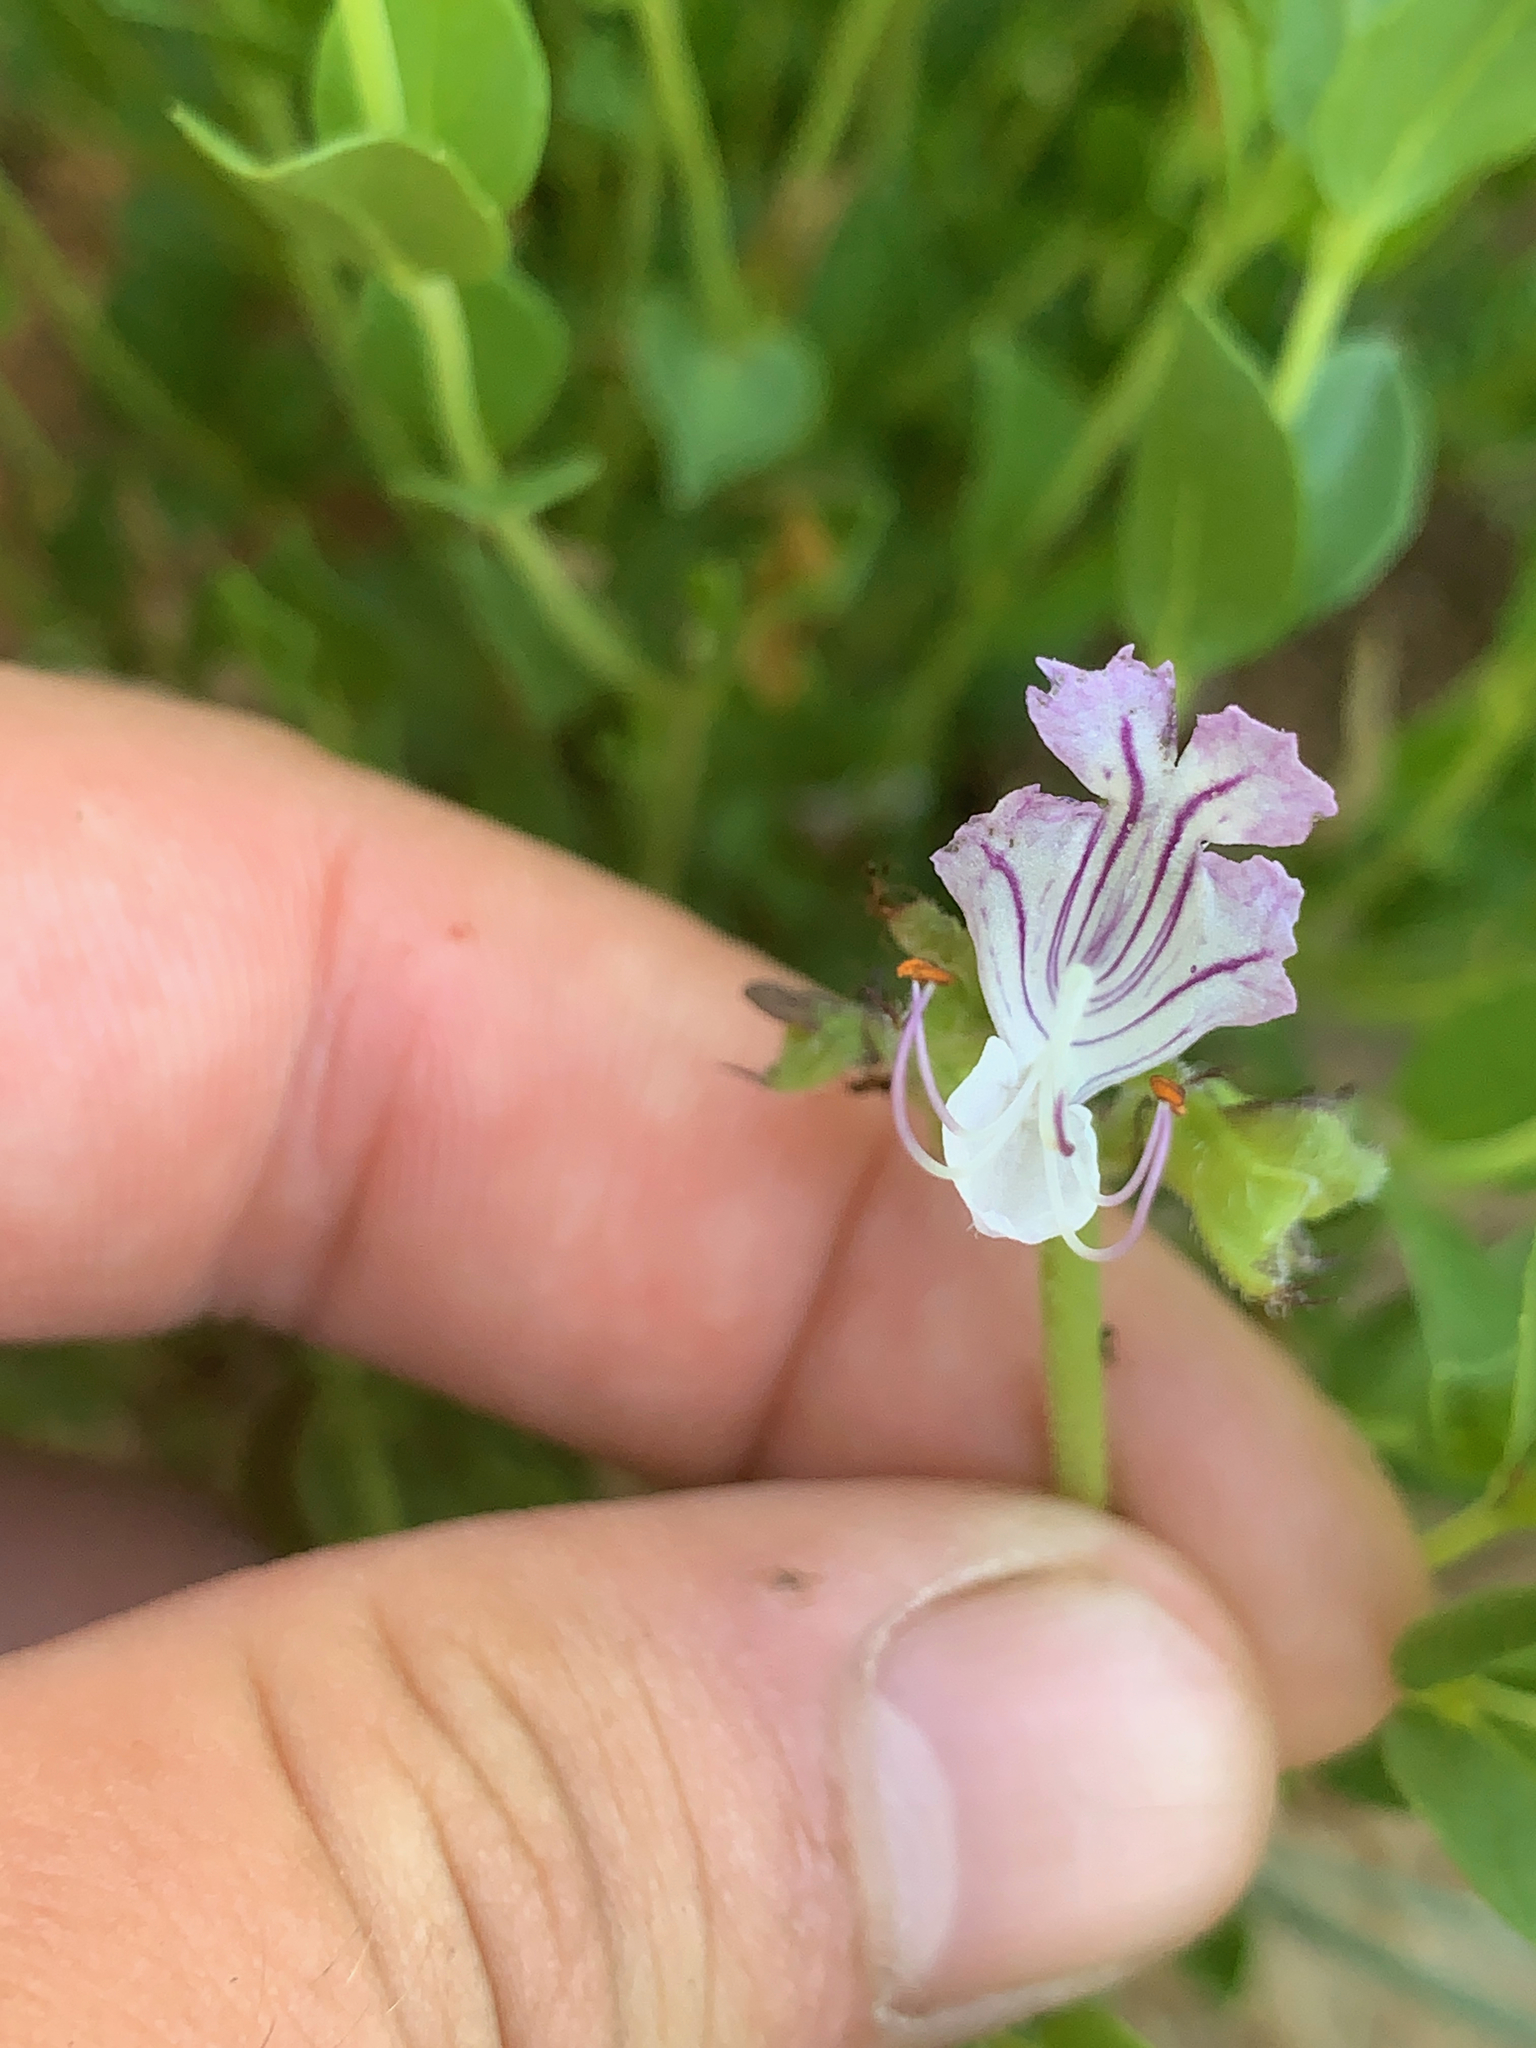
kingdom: Plantae
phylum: Tracheophyta
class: Magnoliopsida
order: Lamiales
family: Lamiaceae
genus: Ocimum
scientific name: Ocimum obovatum
